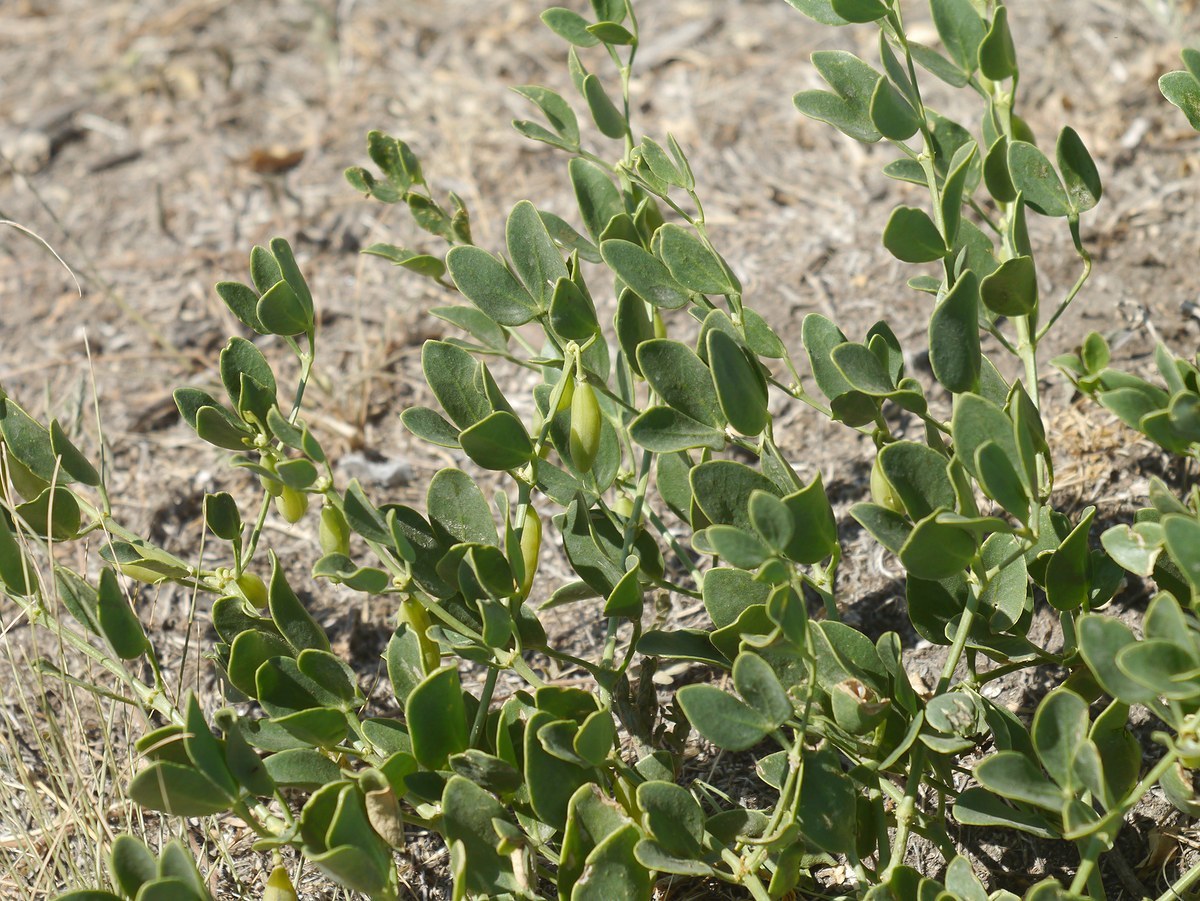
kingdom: Plantae
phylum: Tracheophyta
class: Magnoliopsida
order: Zygophyllales
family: Zygophyllaceae
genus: Zygophyllum
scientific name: Zygophyllum fabago
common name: Syrian beancaper
